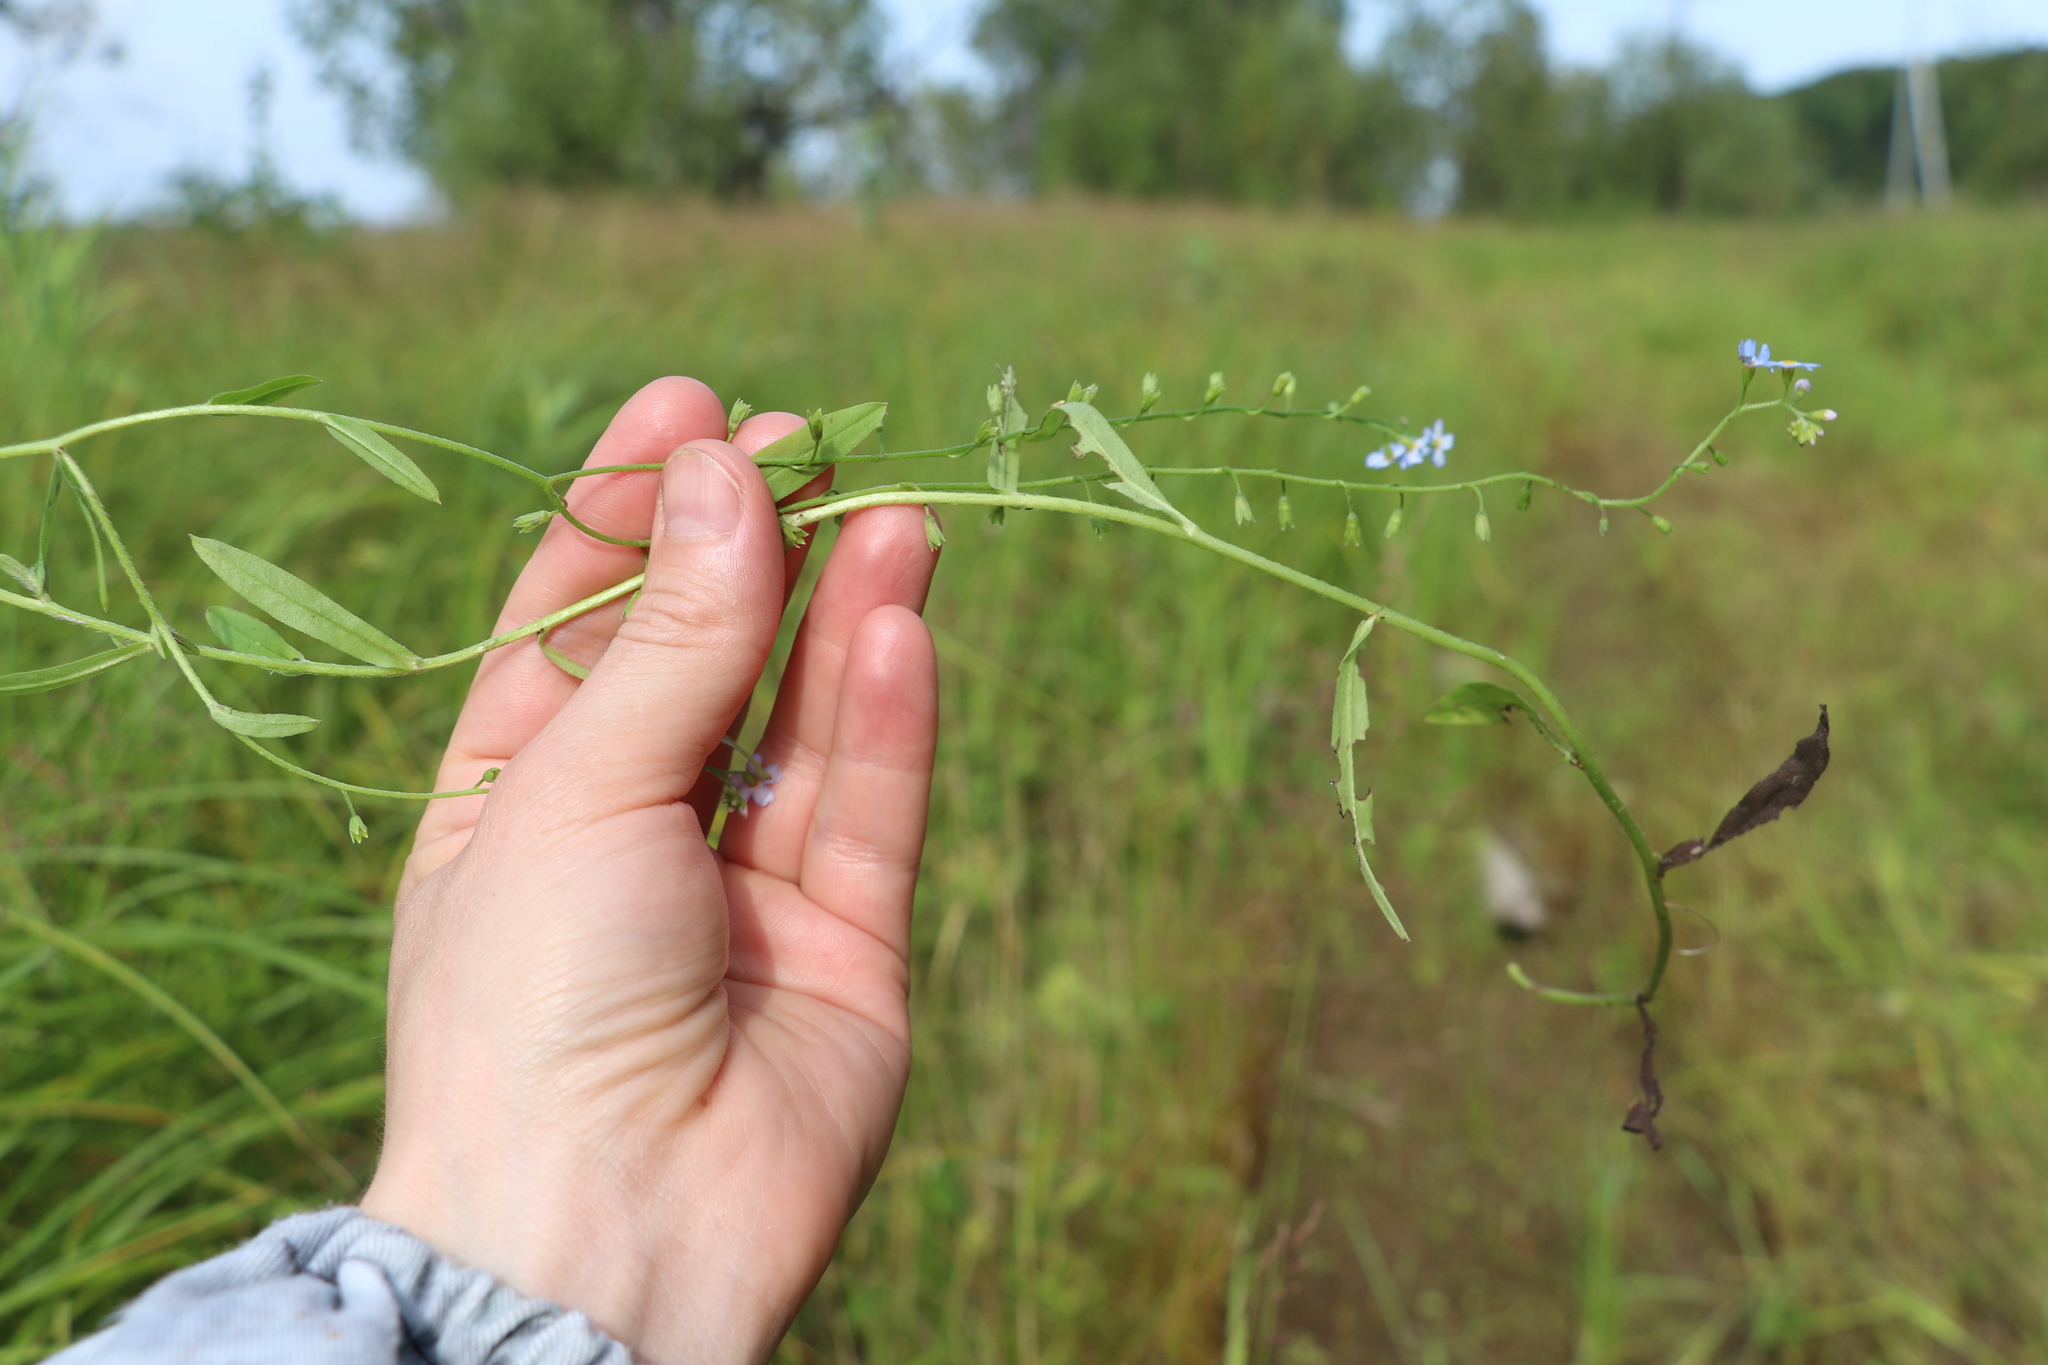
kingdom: Plantae
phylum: Tracheophyta
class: Magnoliopsida
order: Boraginales
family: Boraginaceae
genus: Myosotis
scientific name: Myosotis scorpioides
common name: Water forget-me-not
